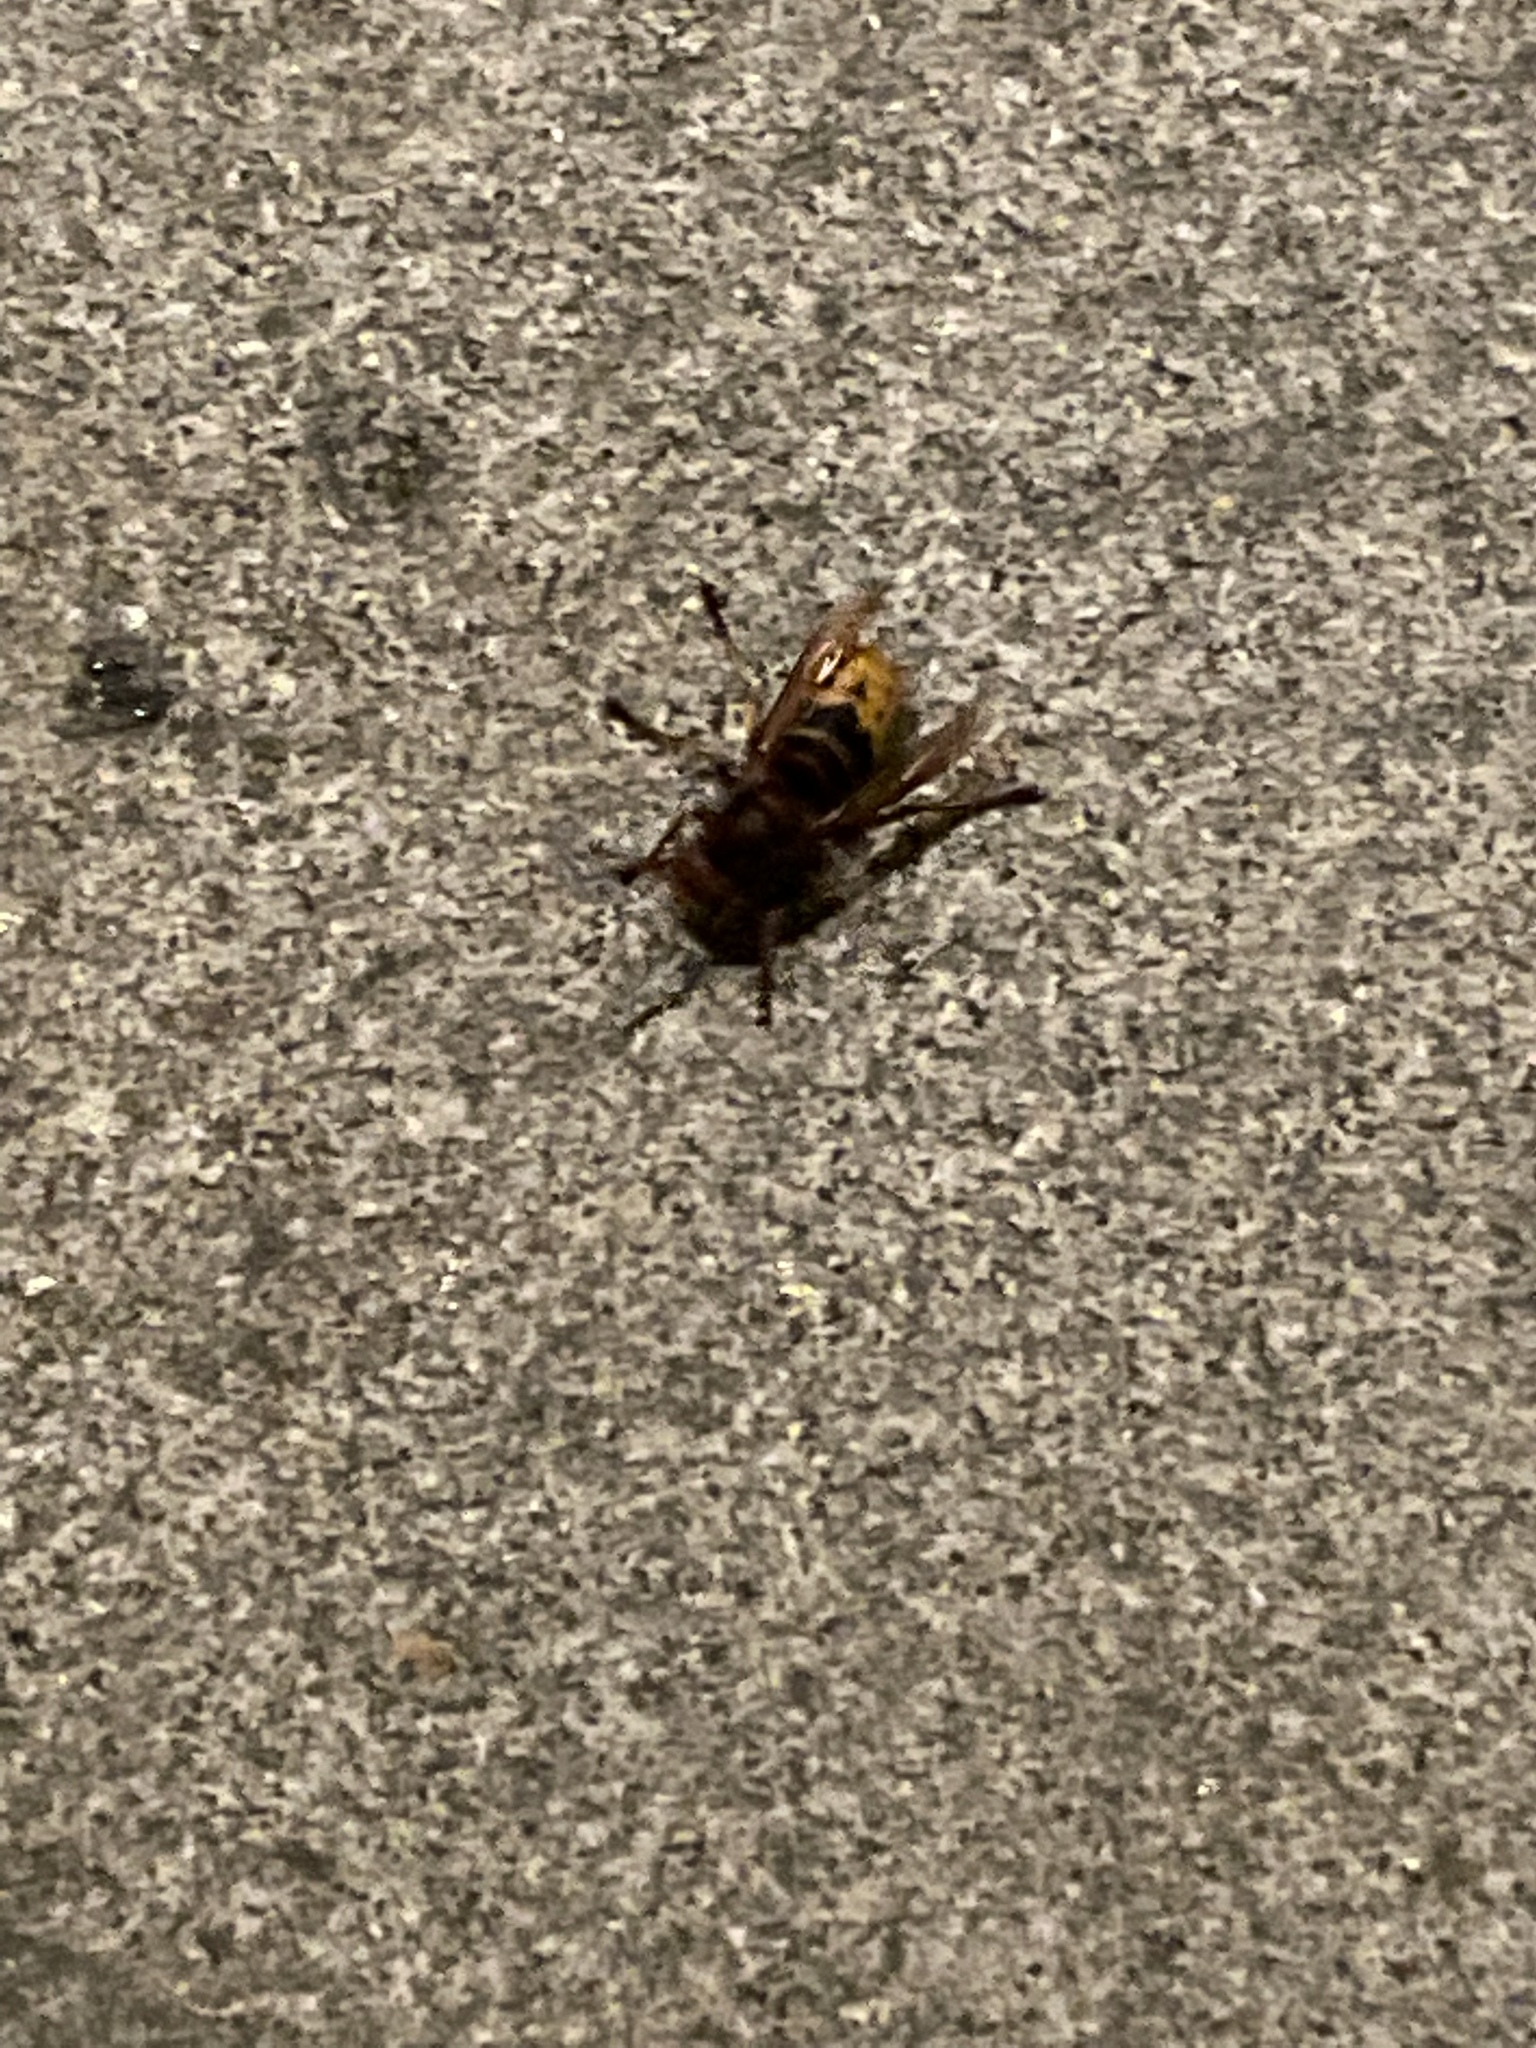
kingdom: Animalia
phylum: Arthropoda
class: Insecta
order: Hymenoptera
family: Vespidae
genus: Vespa
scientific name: Vespa crabro
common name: Hornet
